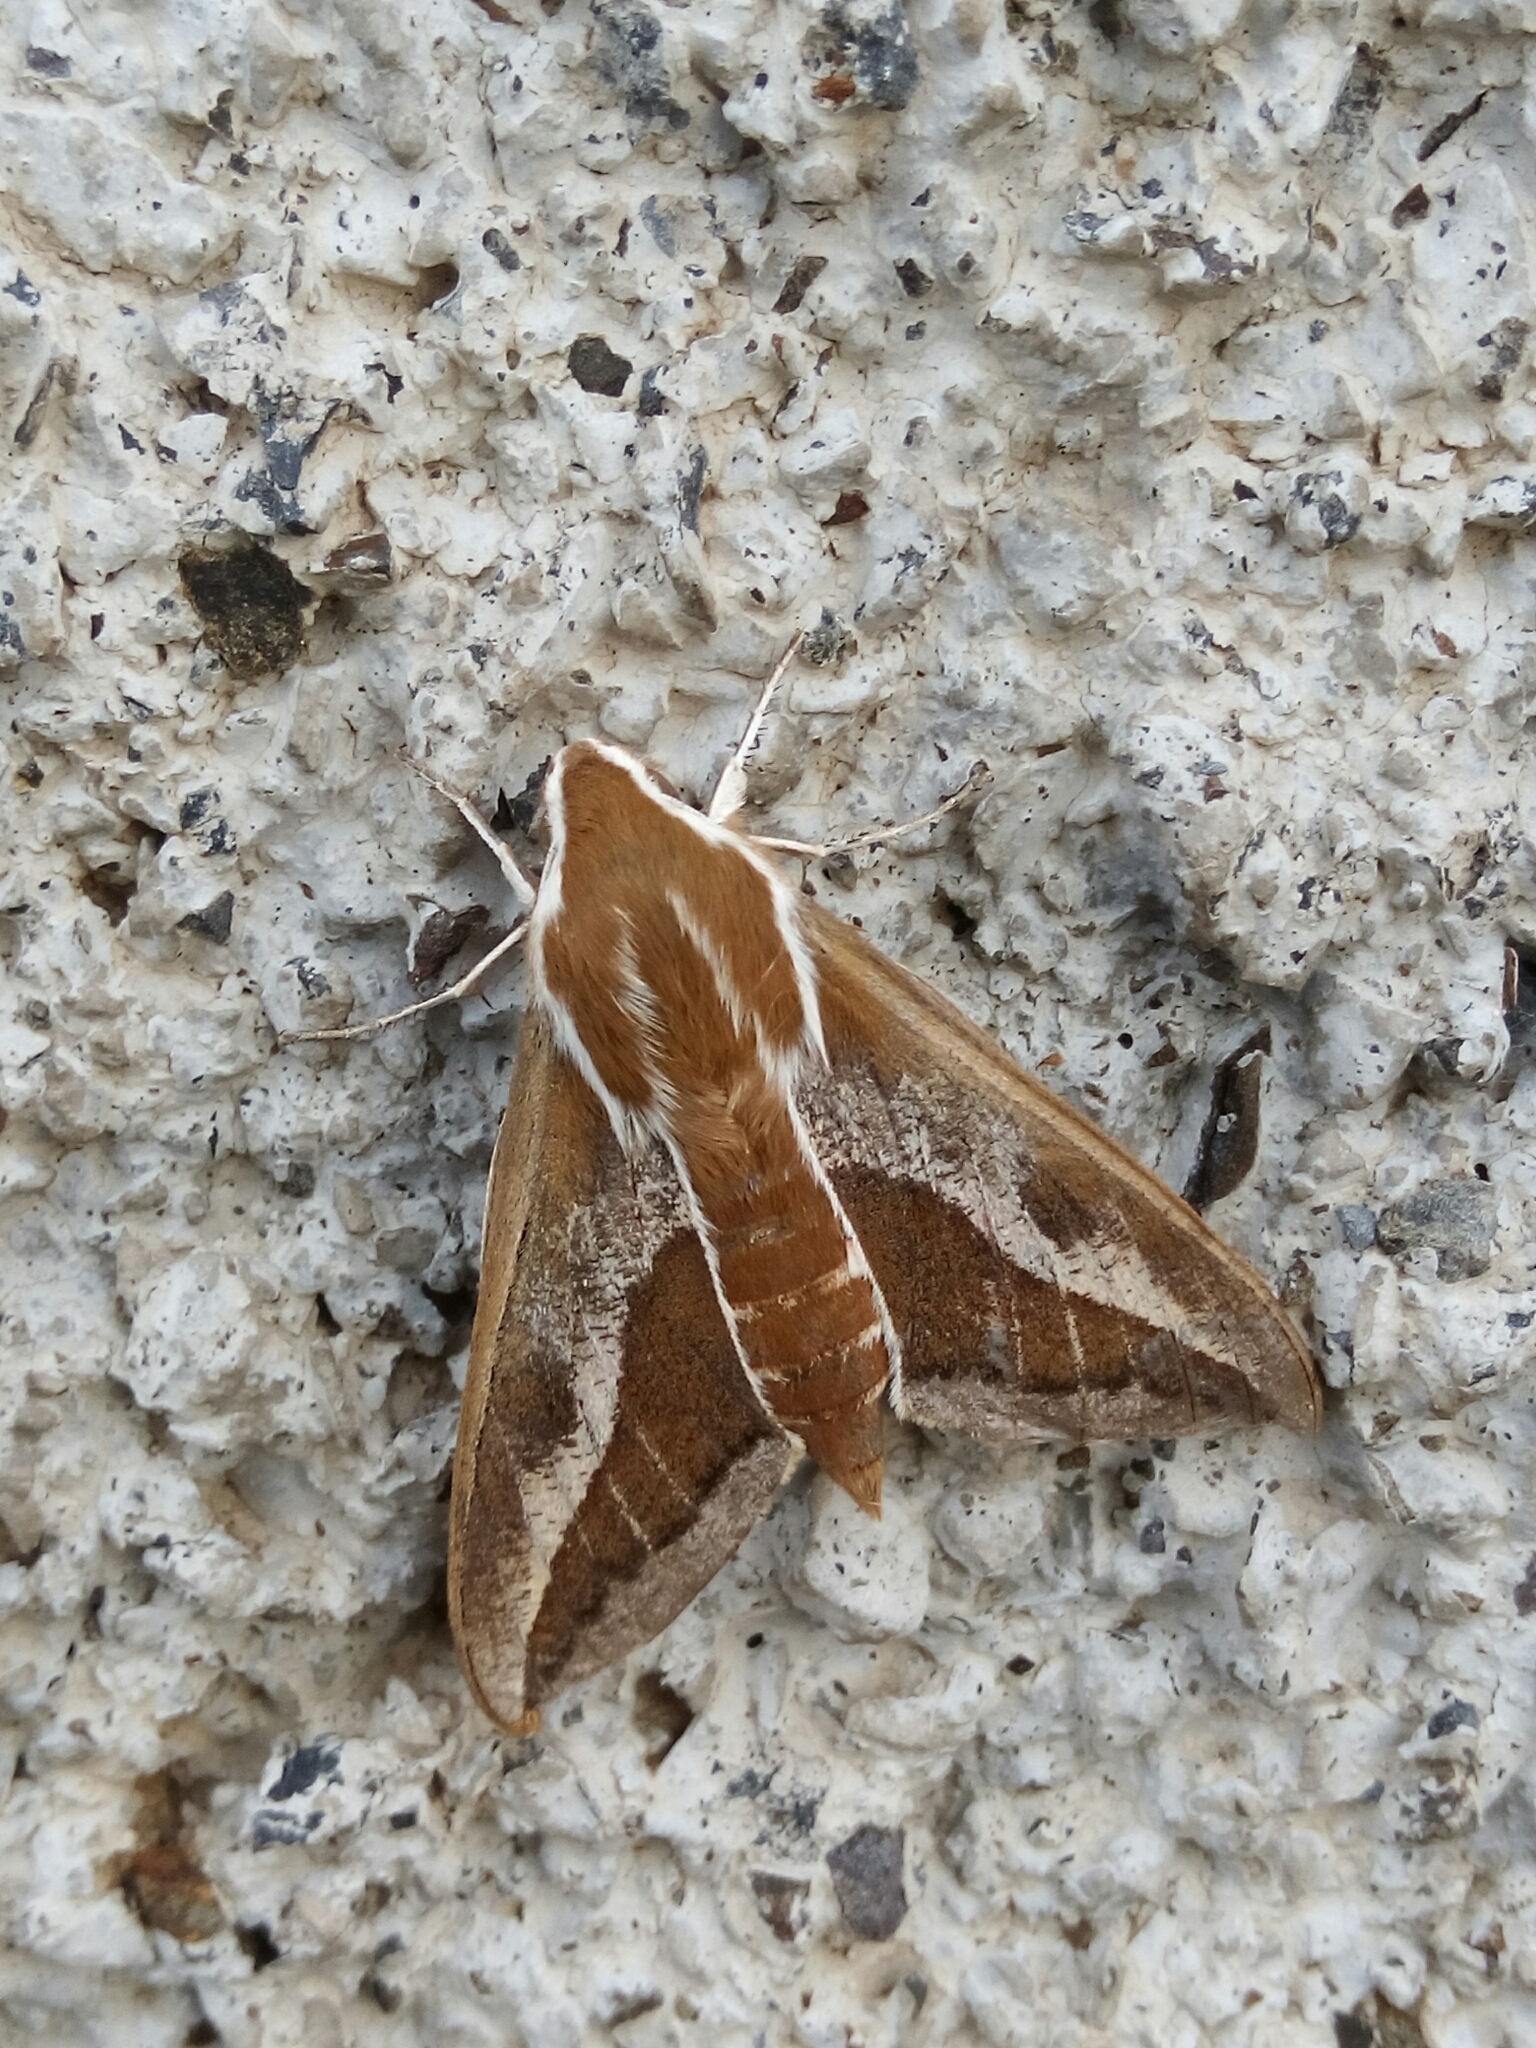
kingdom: Animalia
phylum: Arthropoda
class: Insecta
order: Lepidoptera
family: Sphingidae
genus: Hyles
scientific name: Hyles tithymali
